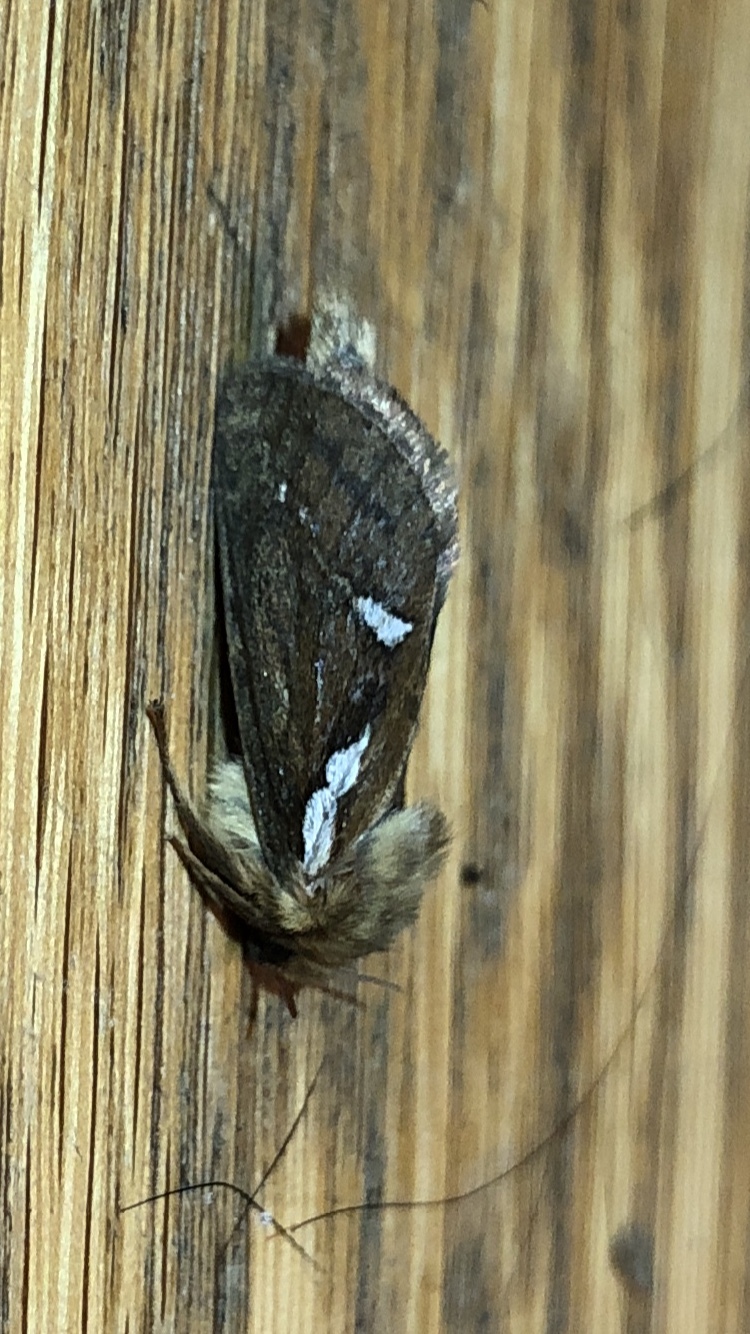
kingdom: Animalia
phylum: Arthropoda
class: Insecta
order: Lepidoptera
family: Hepialidae
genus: Korscheltellus
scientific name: Korscheltellus lupulina
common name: Common swift
